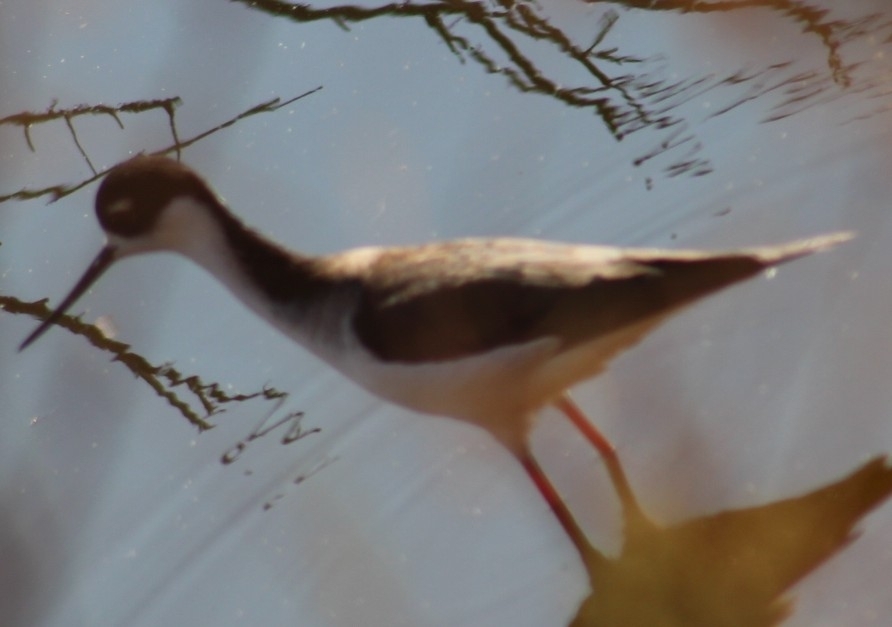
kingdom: Animalia
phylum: Chordata
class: Aves
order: Charadriiformes
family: Recurvirostridae
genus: Himantopus
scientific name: Himantopus mexicanus
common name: Black-necked stilt
